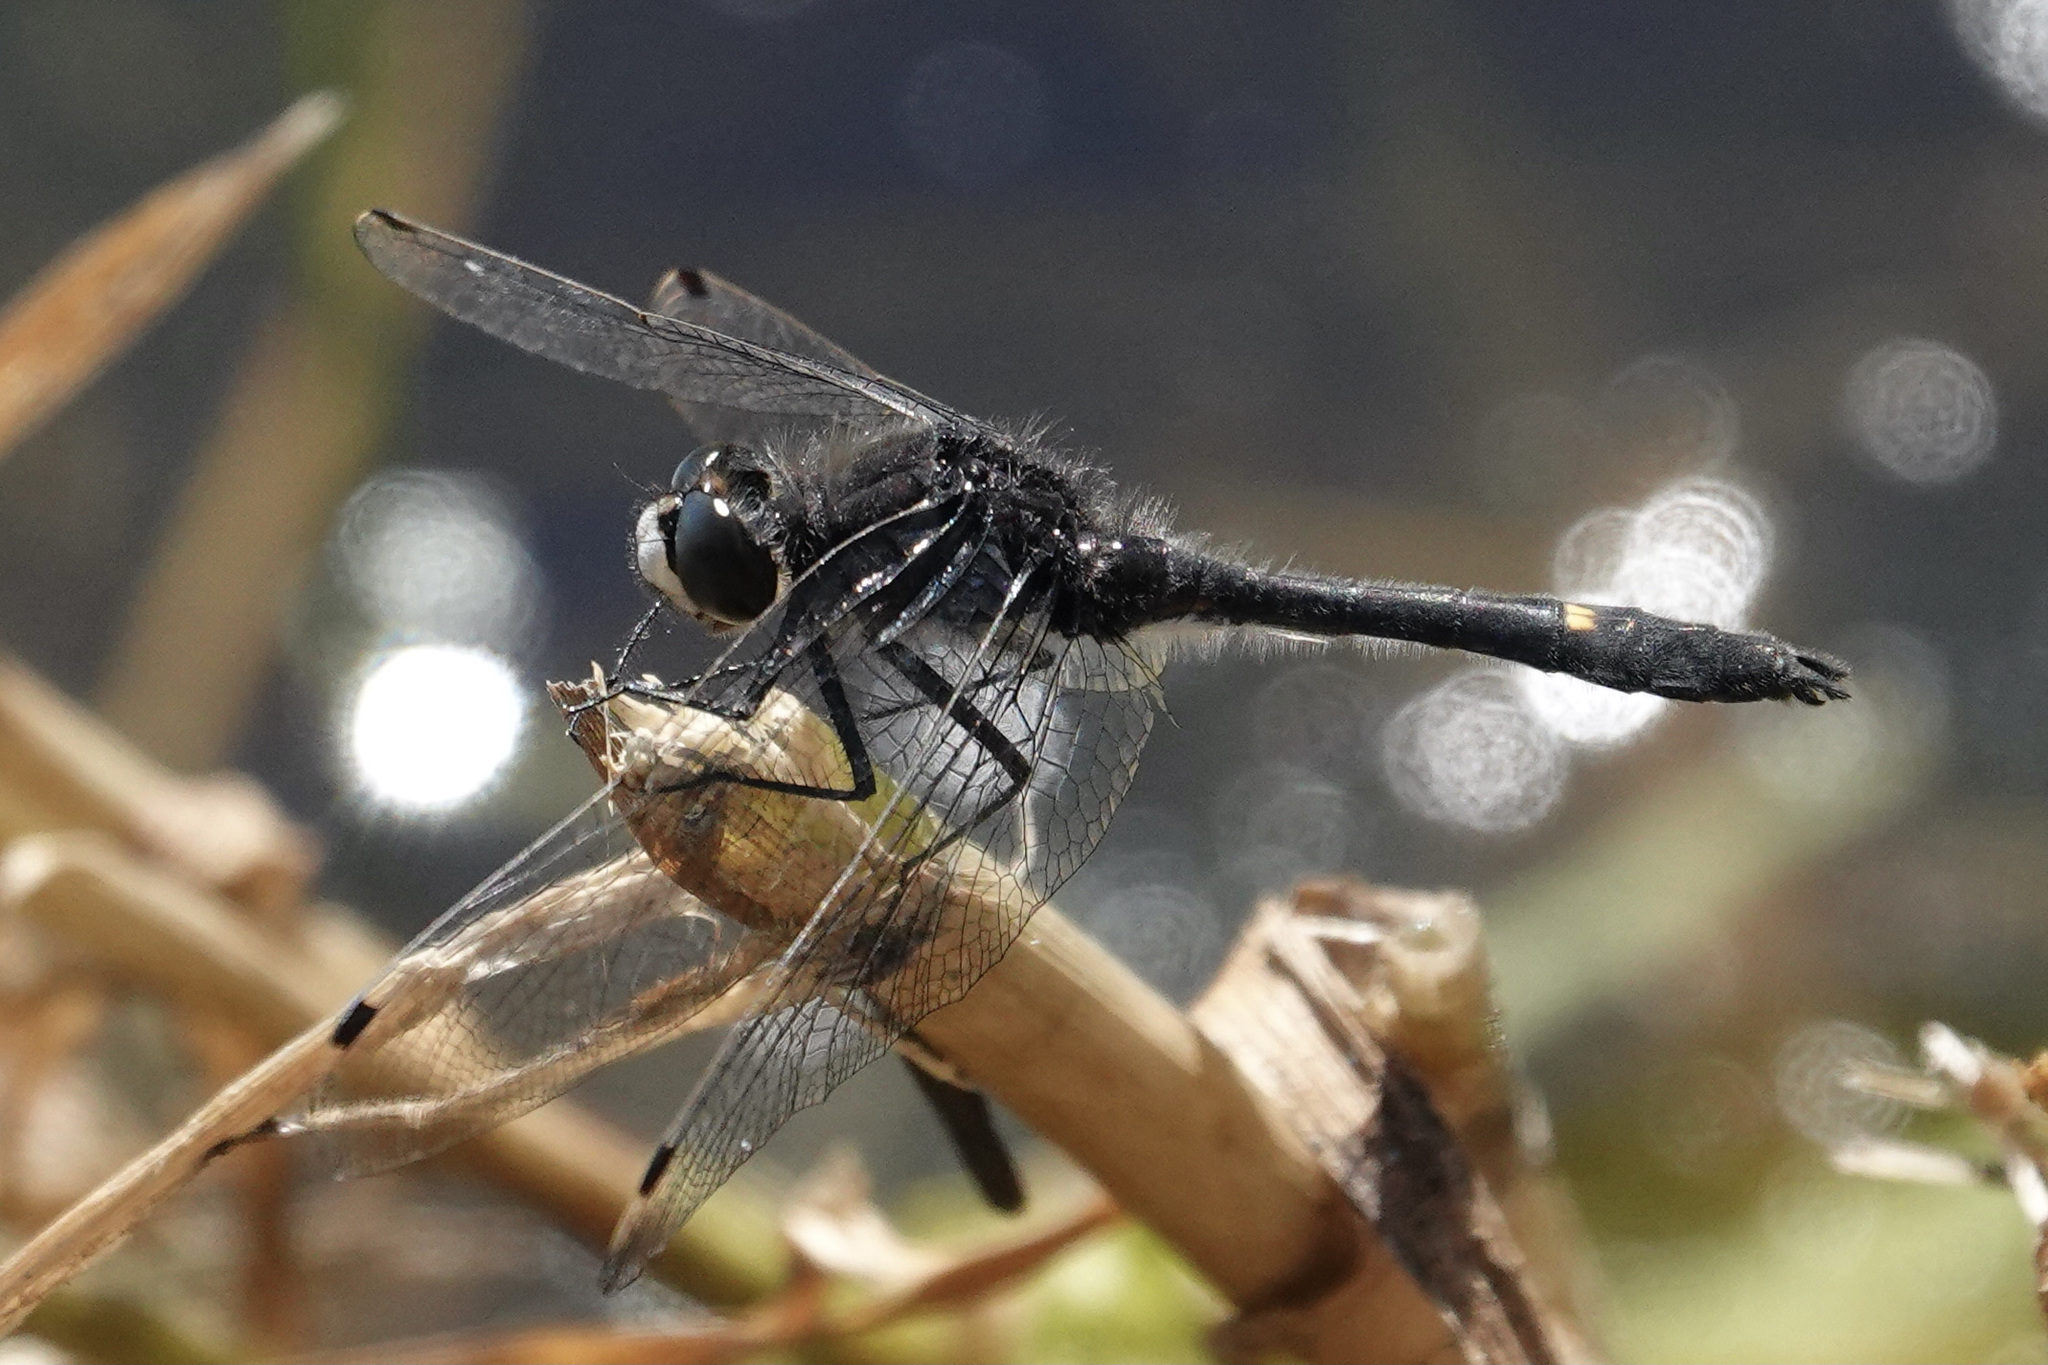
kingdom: Animalia
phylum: Arthropoda
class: Insecta
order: Odonata
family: Libellulidae
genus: Leucorrhinia
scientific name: Leucorrhinia intacta
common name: Dot-tailed whiteface
